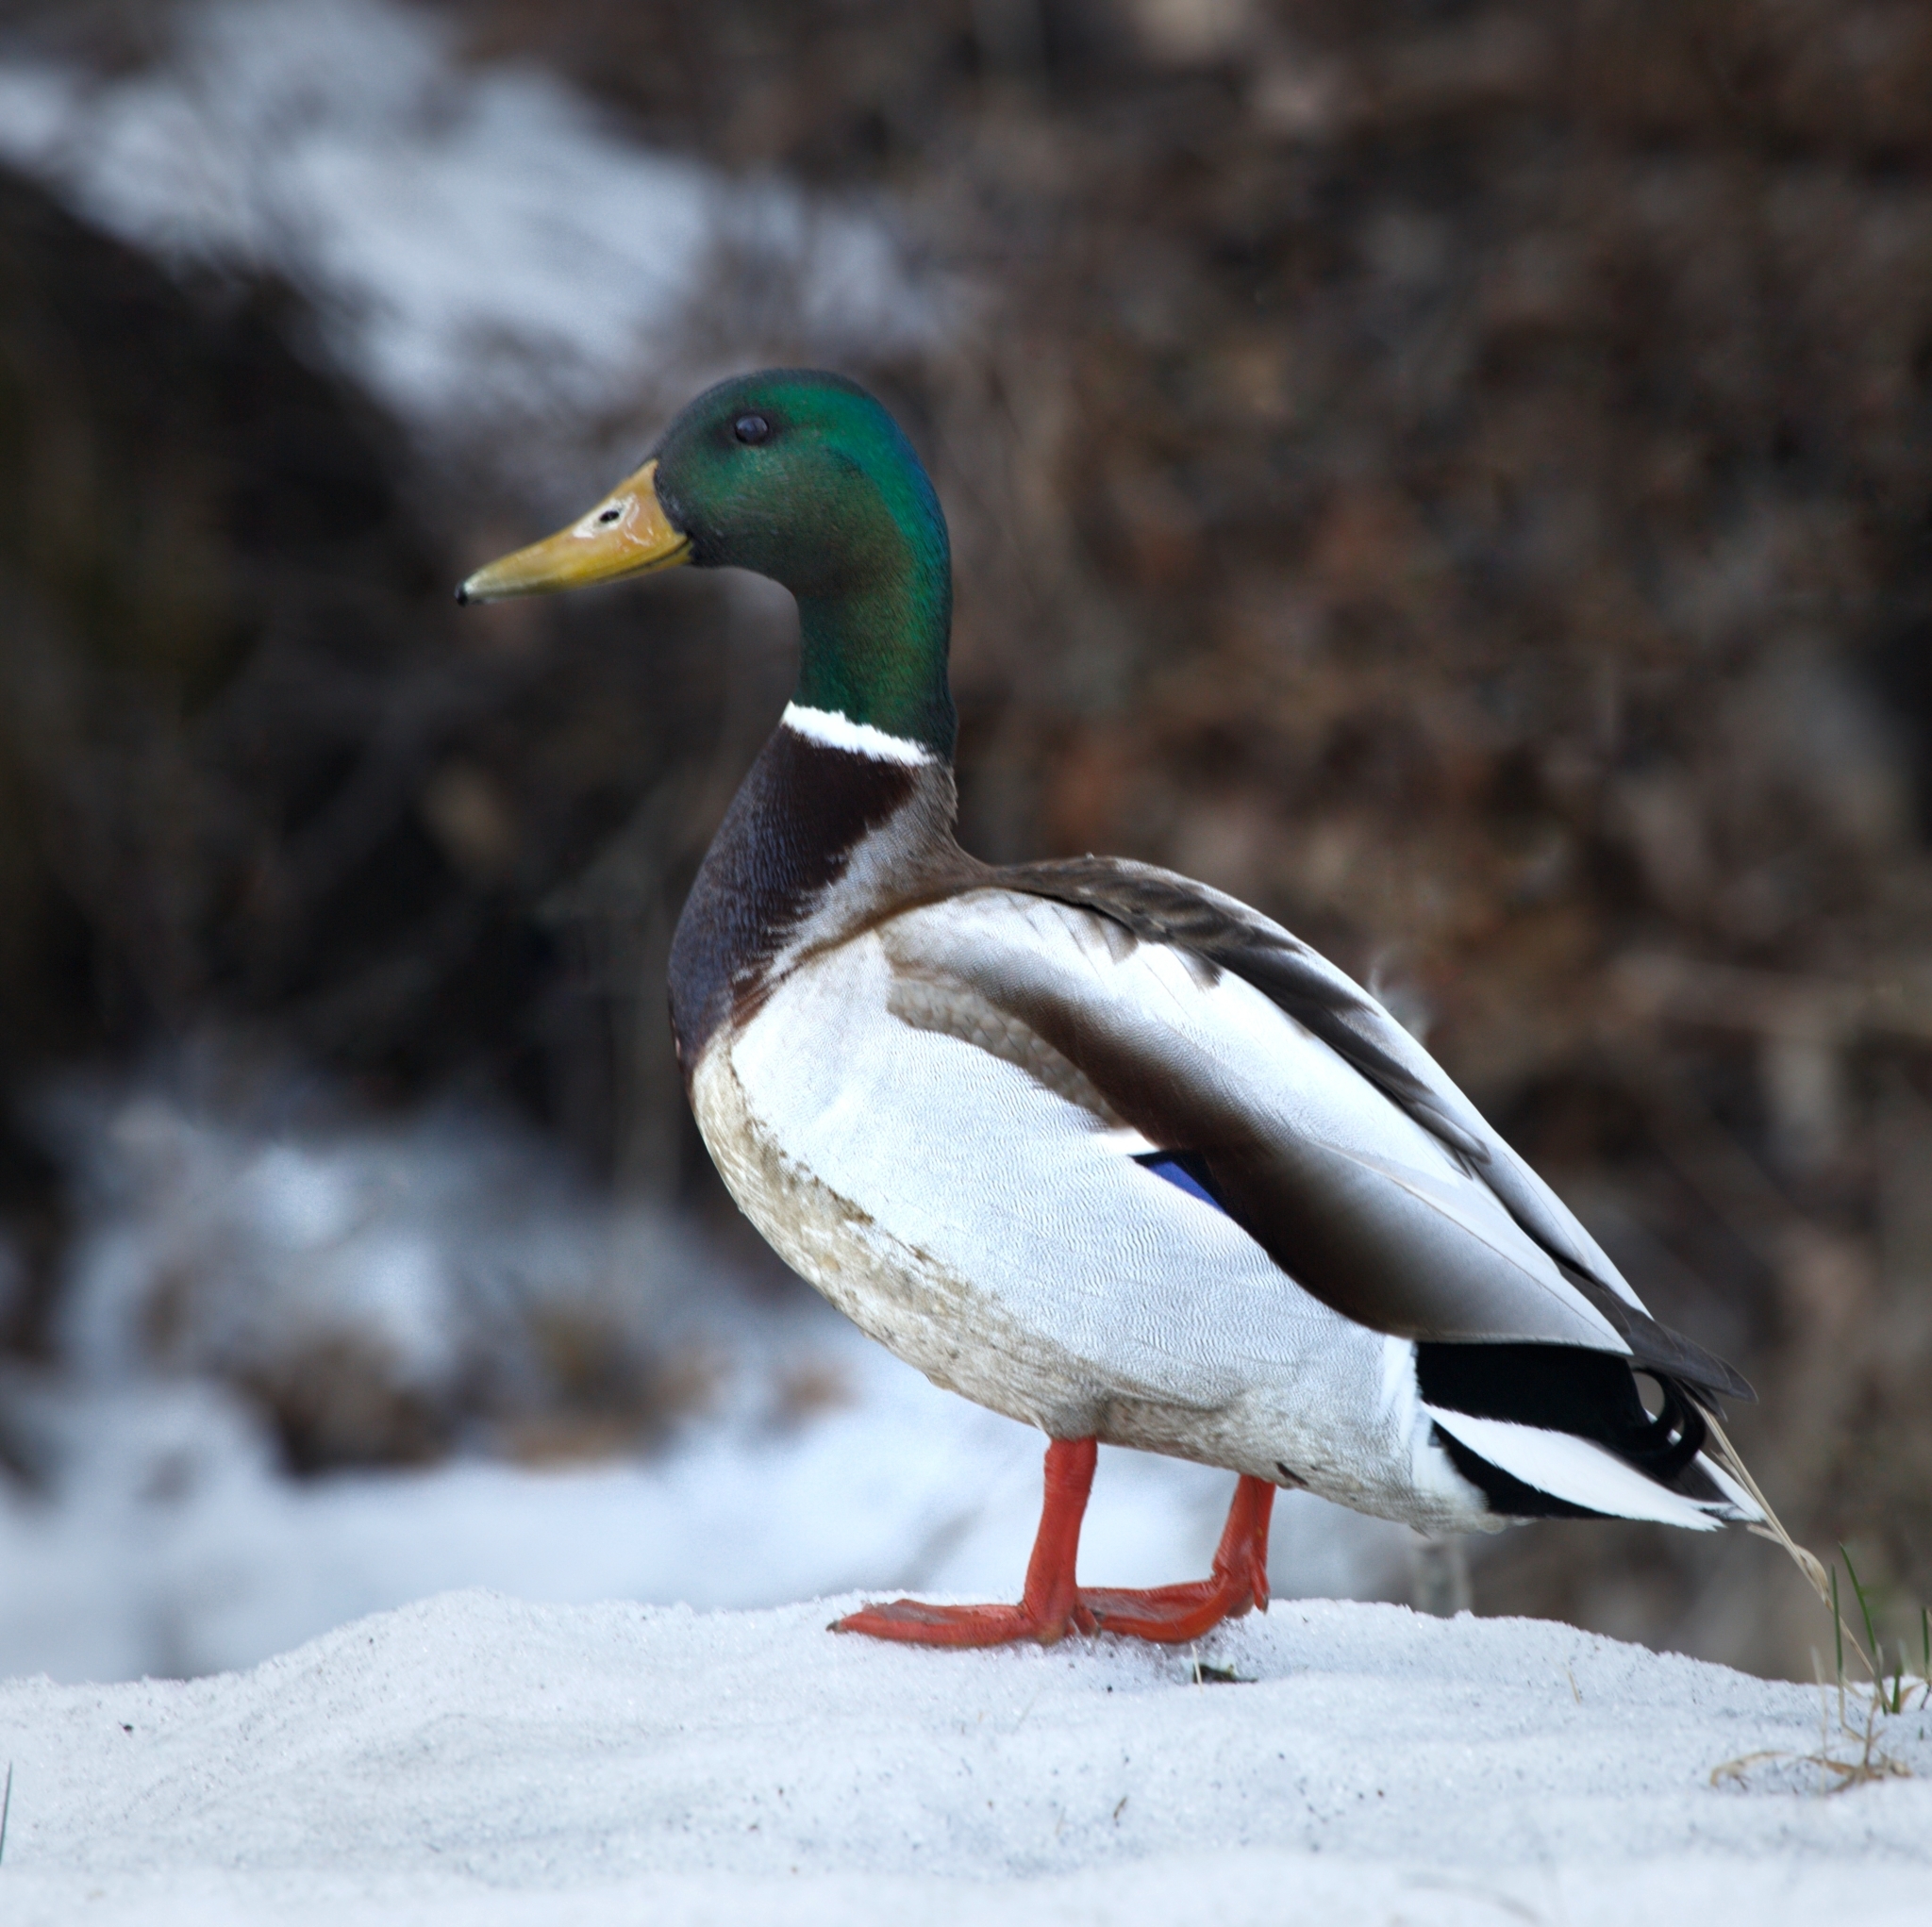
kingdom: Animalia
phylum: Chordata
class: Aves
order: Anseriformes
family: Anatidae
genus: Anas
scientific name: Anas platyrhynchos
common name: Mallard
